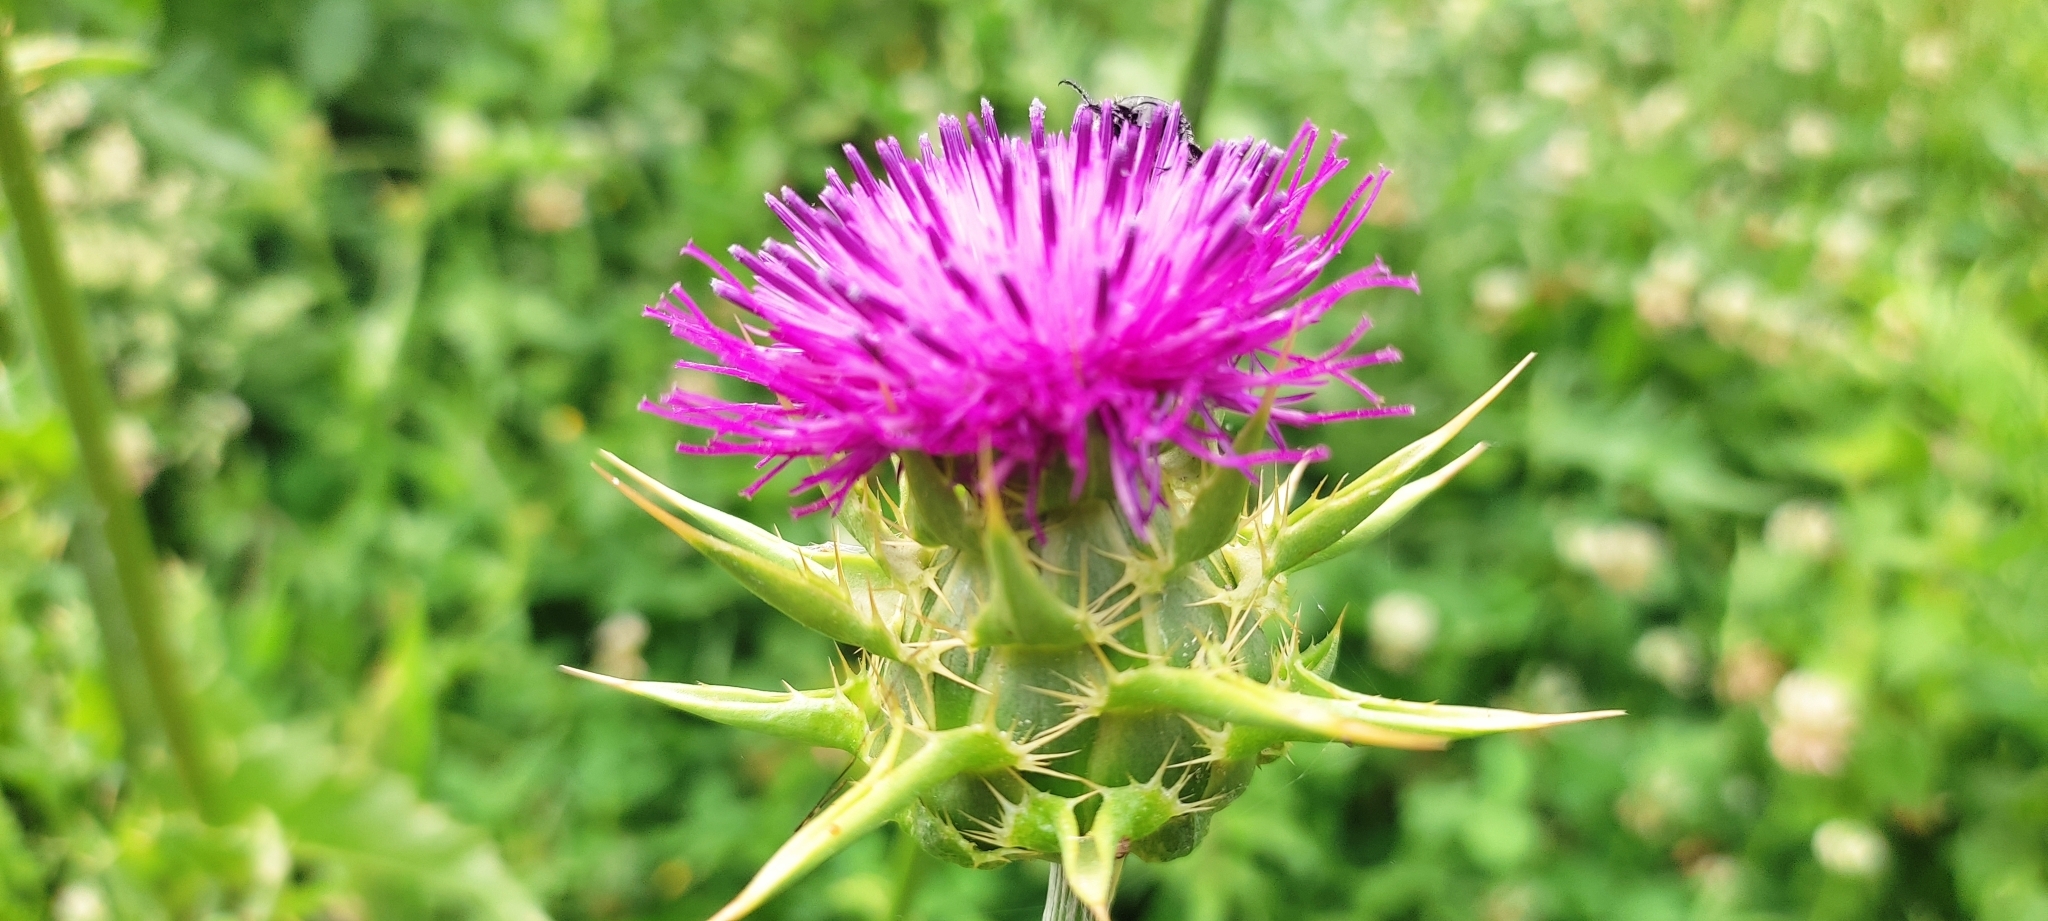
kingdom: Plantae
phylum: Tracheophyta
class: Magnoliopsida
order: Asterales
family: Asteraceae
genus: Silybum
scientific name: Silybum marianum
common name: Milk thistle
